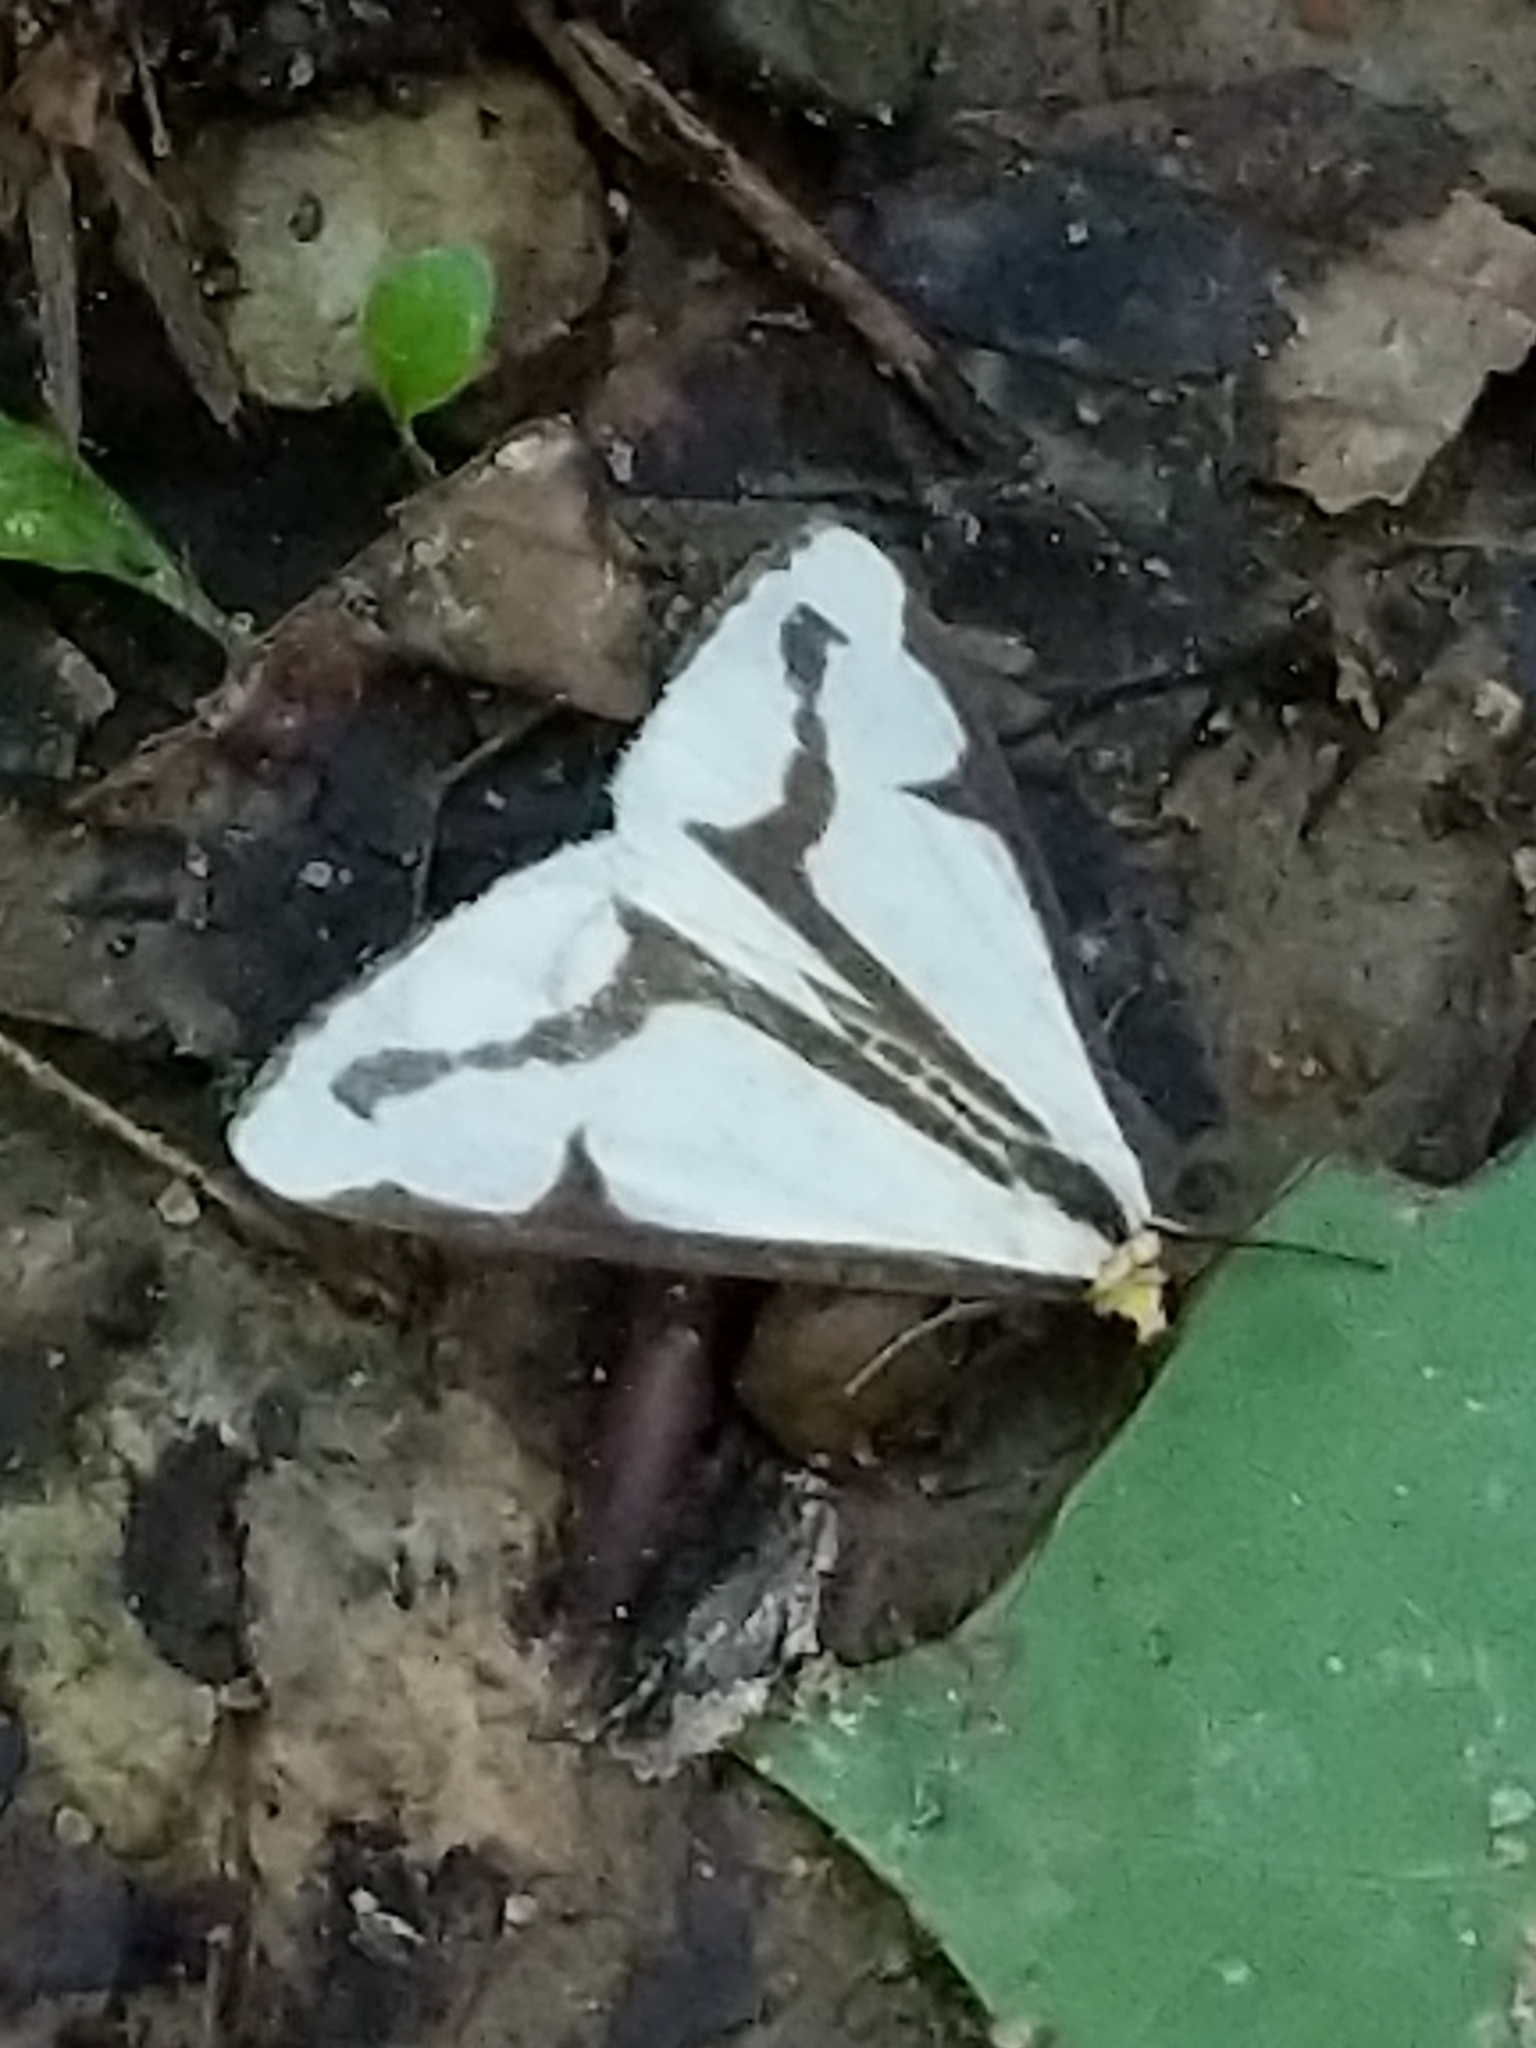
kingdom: Animalia
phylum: Arthropoda
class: Insecta
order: Lepidoptera
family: Erebidae
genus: Haploa
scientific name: Haploa lecontei
